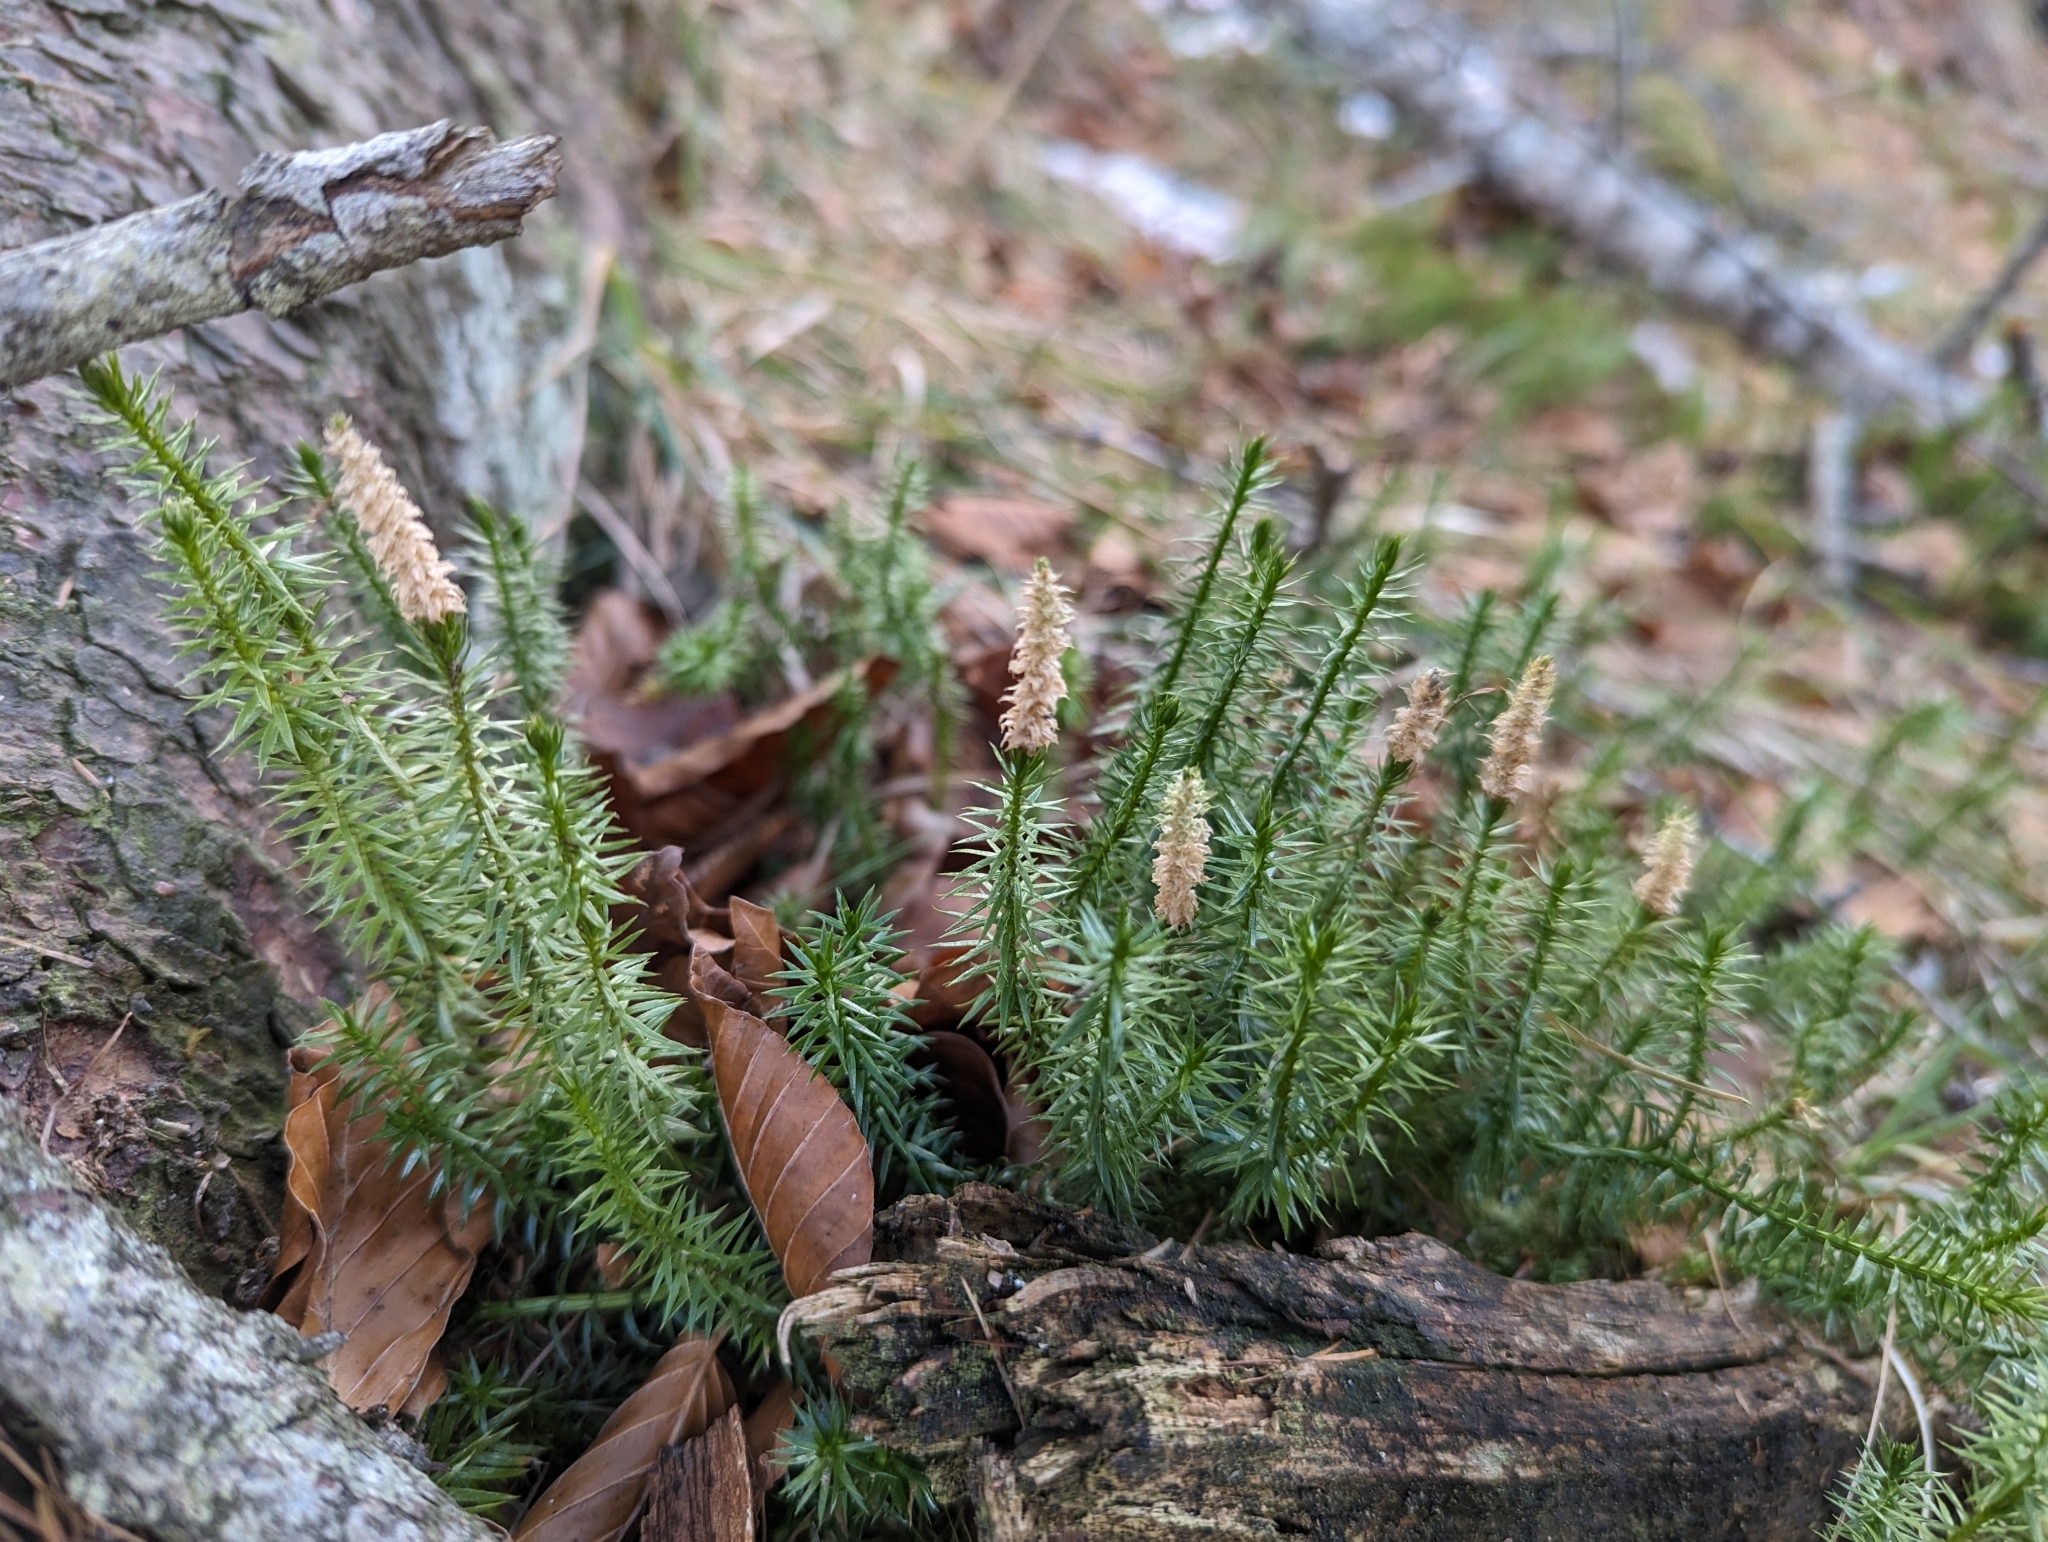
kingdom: Plantae
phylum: Tracheophyta
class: Lycopodiopsida
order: Lycopodiales
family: Lycopodiaceae
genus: Spinulum
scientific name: Spinulum annotinum
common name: Interrupted club-moss
